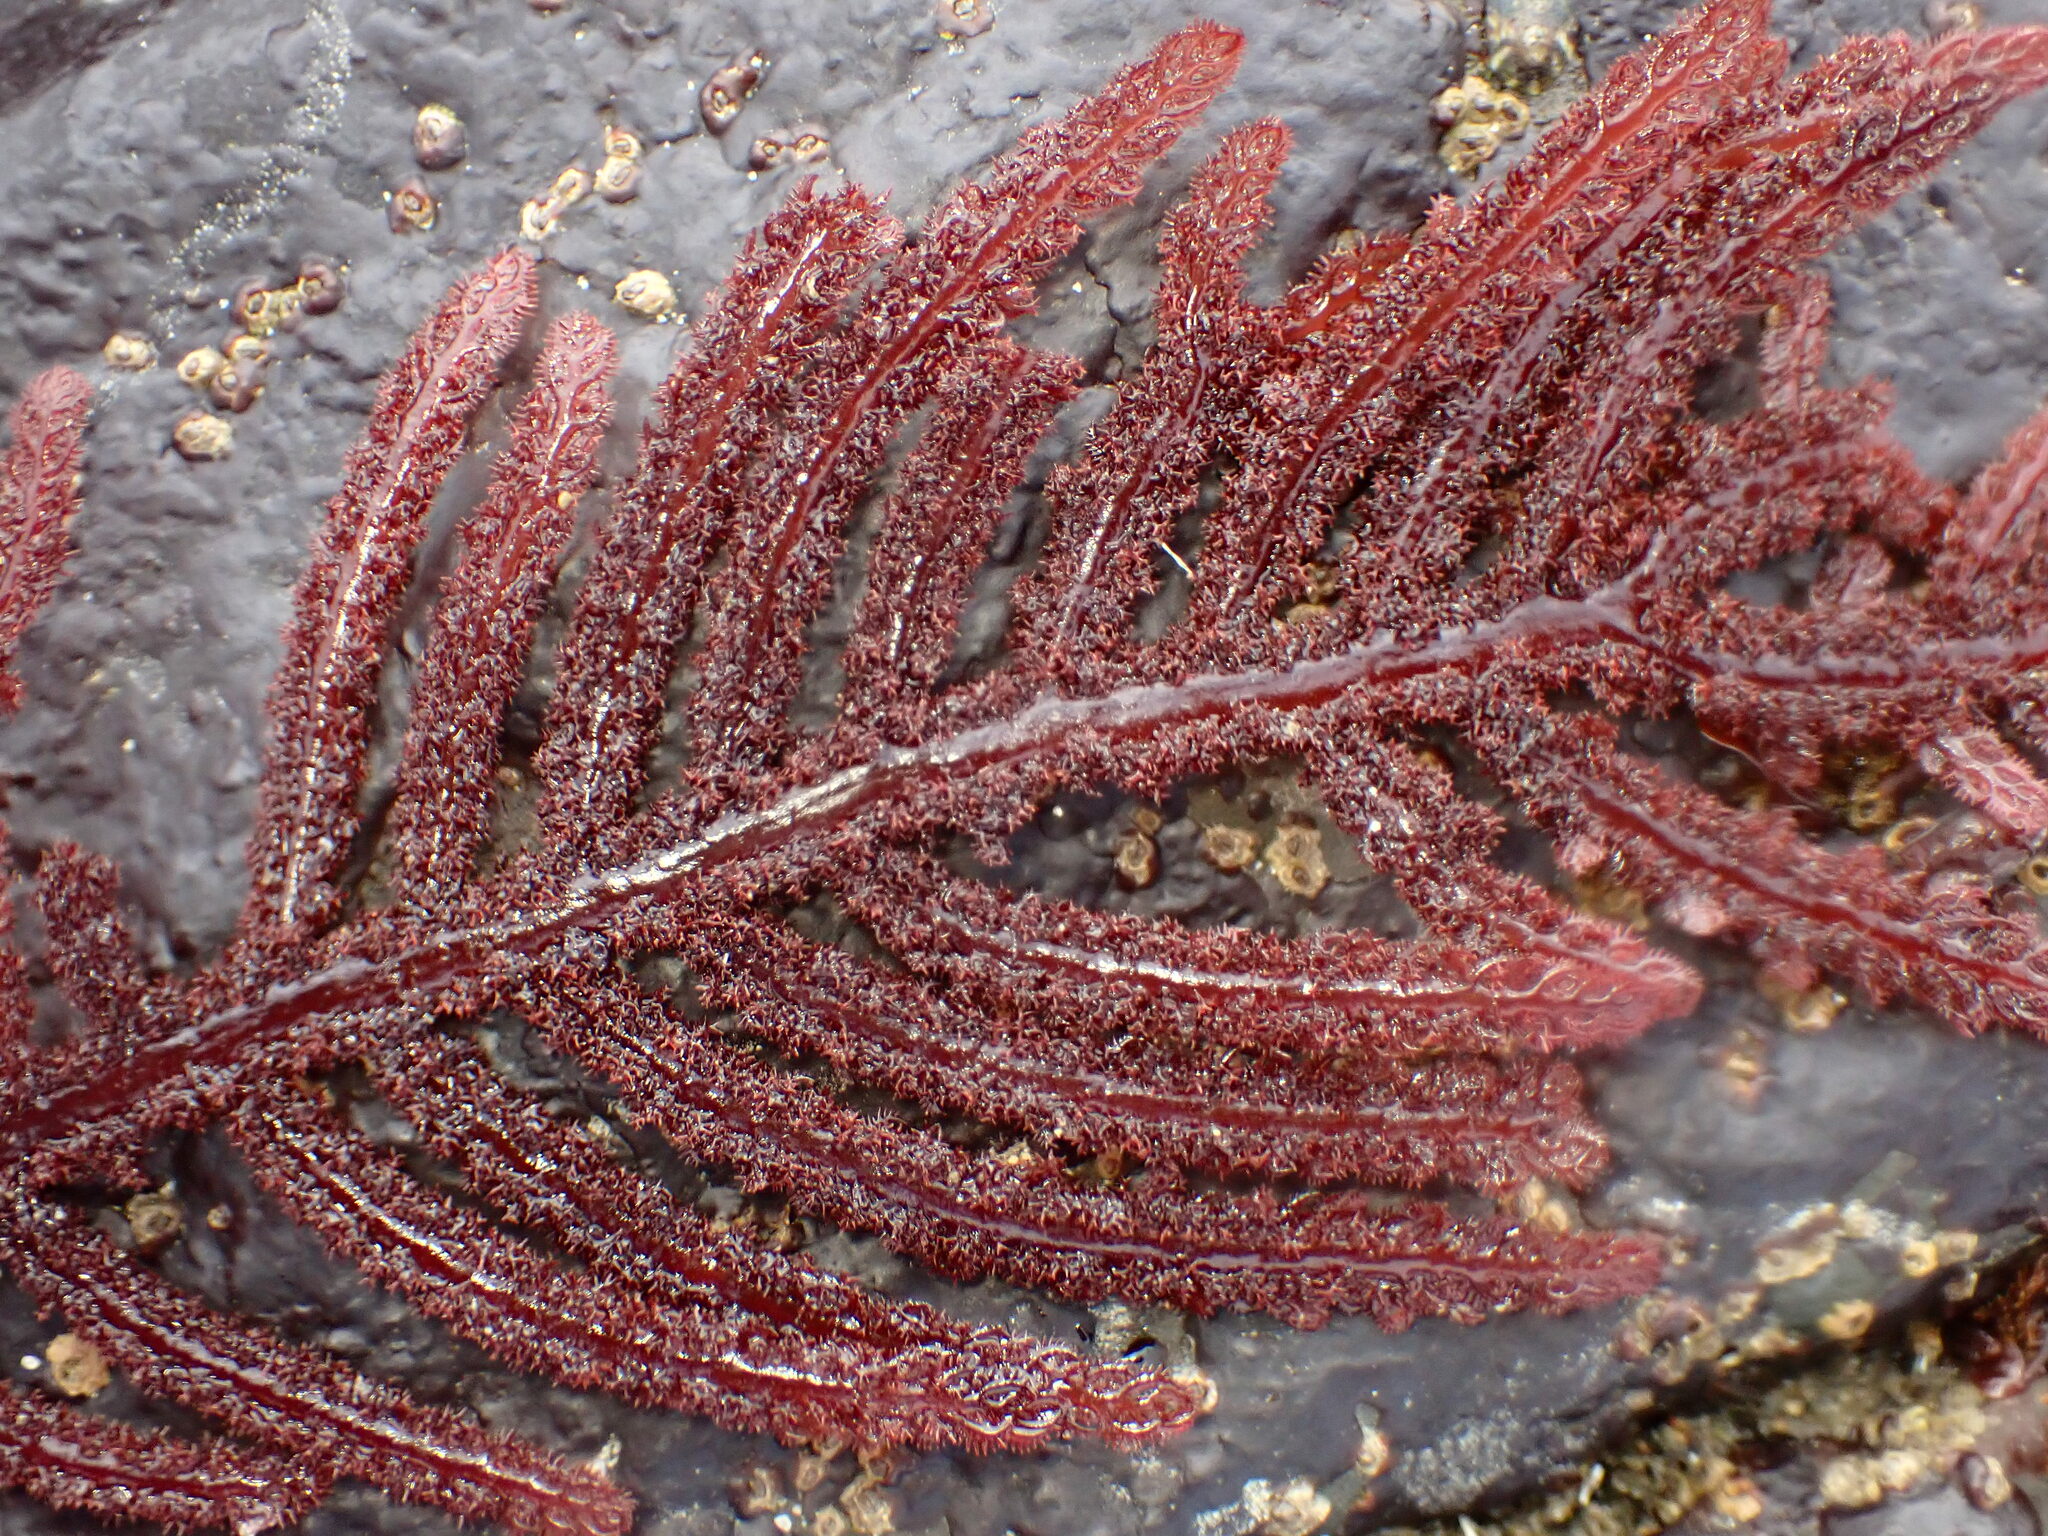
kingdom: Plantae
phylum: Rhodophyta
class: Florideophyceae
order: Ceramiales
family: Wrangeliaceae
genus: Neoptilota
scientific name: Neoptilota densa
